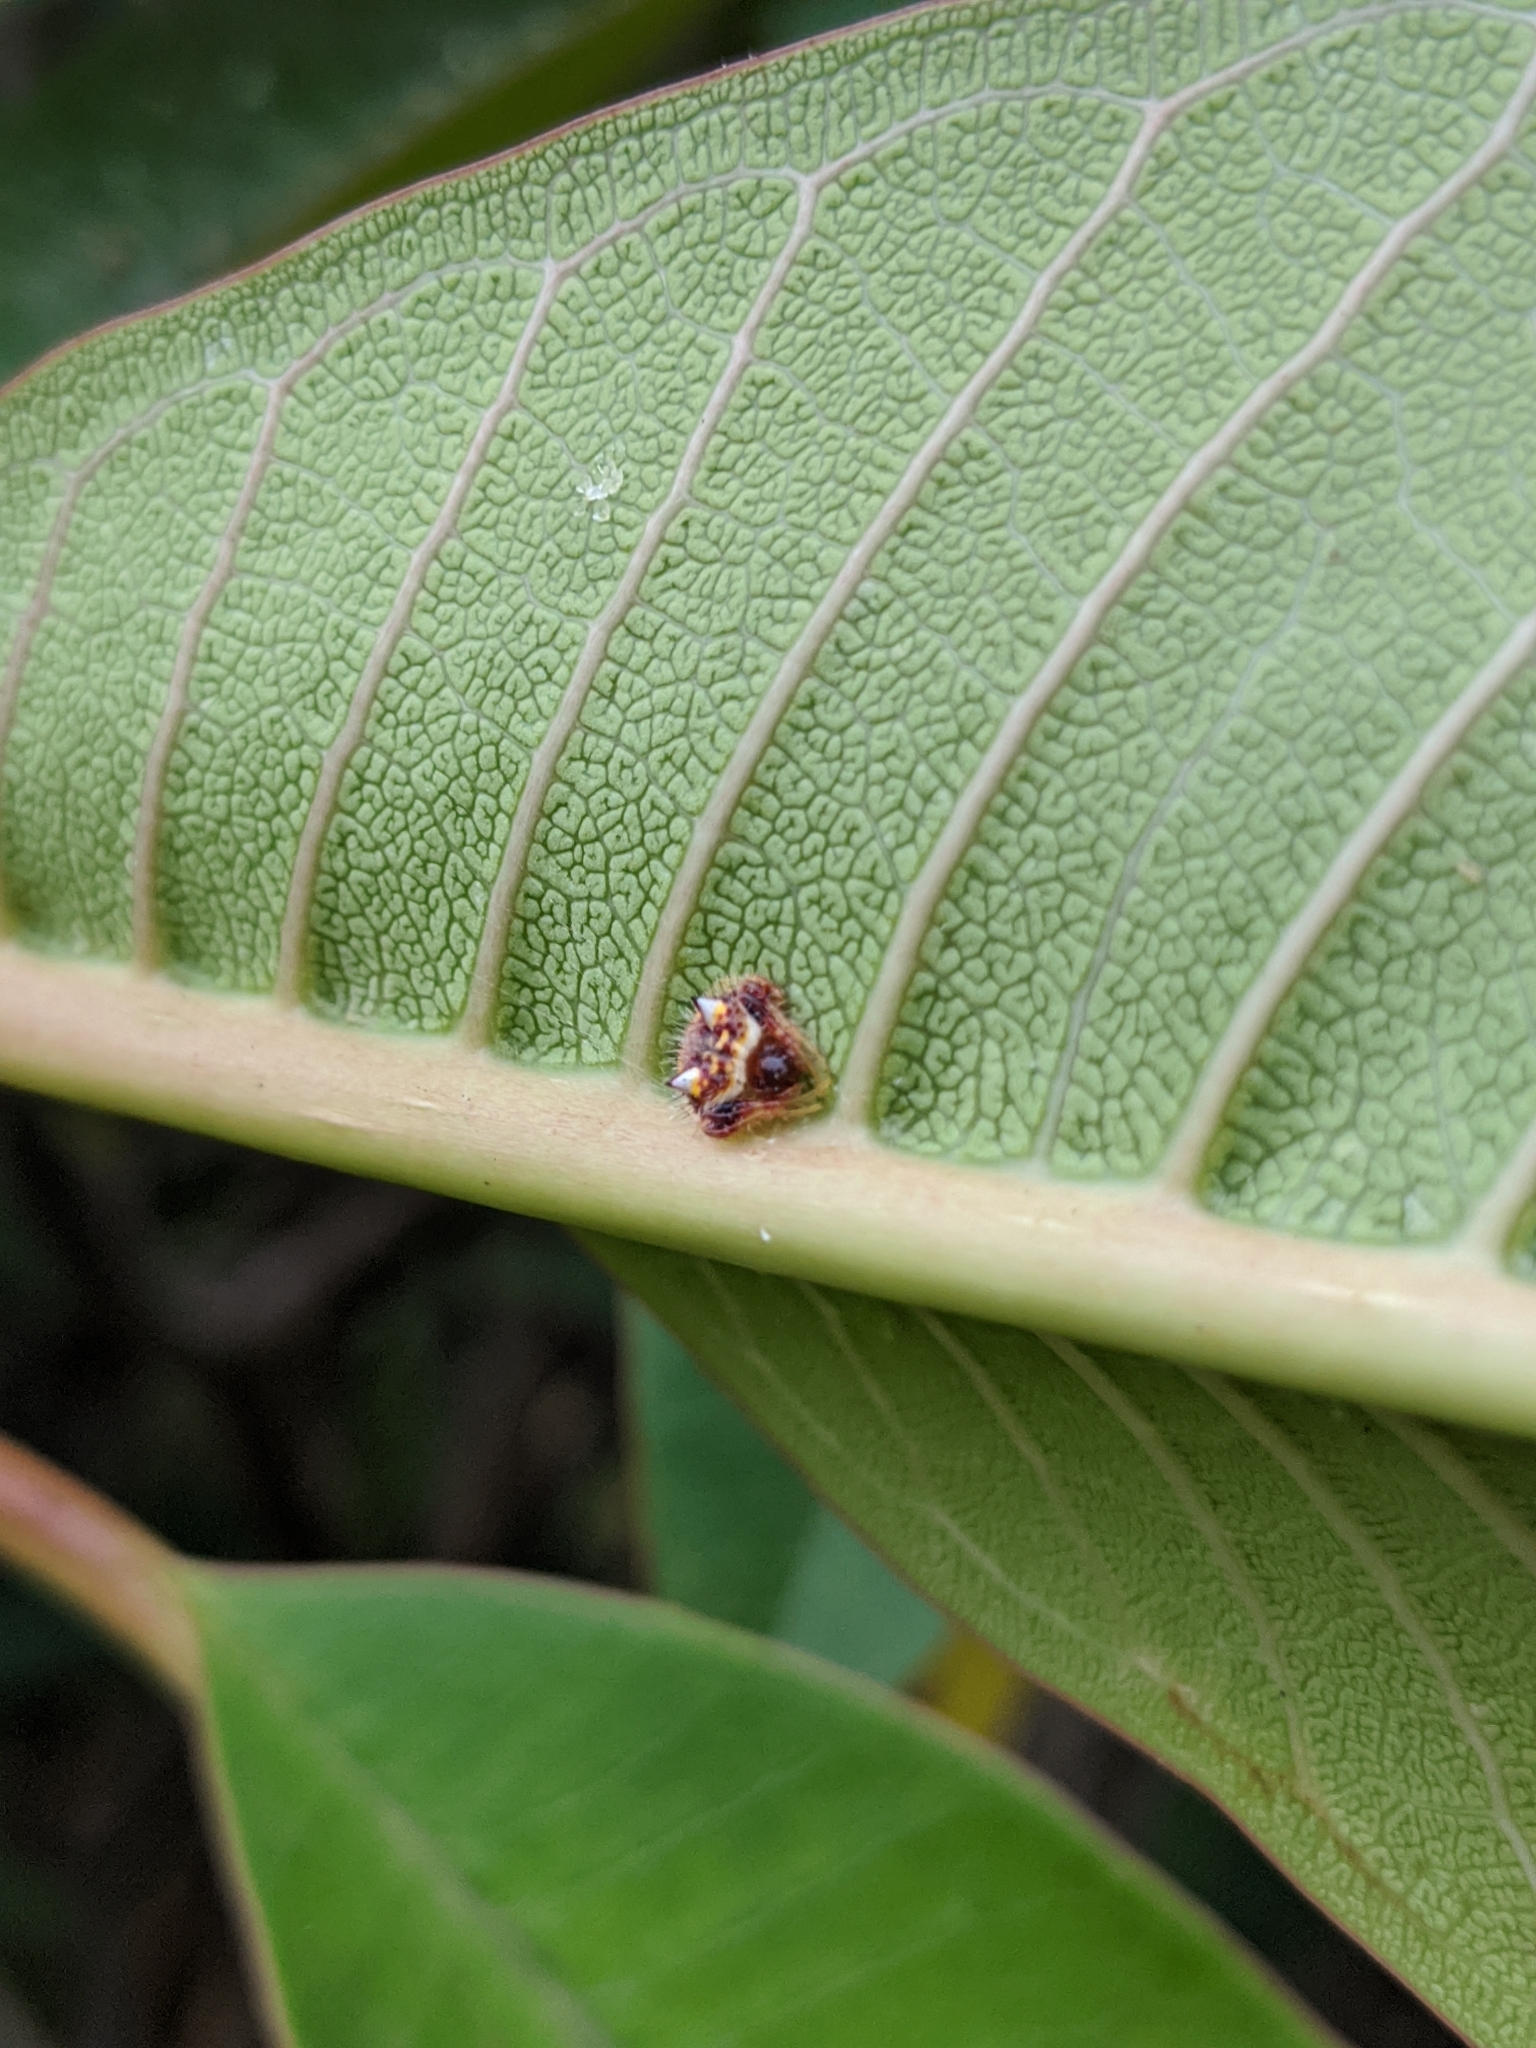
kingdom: Animalia
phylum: Arthropoda
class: Arachnida
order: Araneae
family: Araneidae
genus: Poecilopachys
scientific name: Poecilopachys australasia
